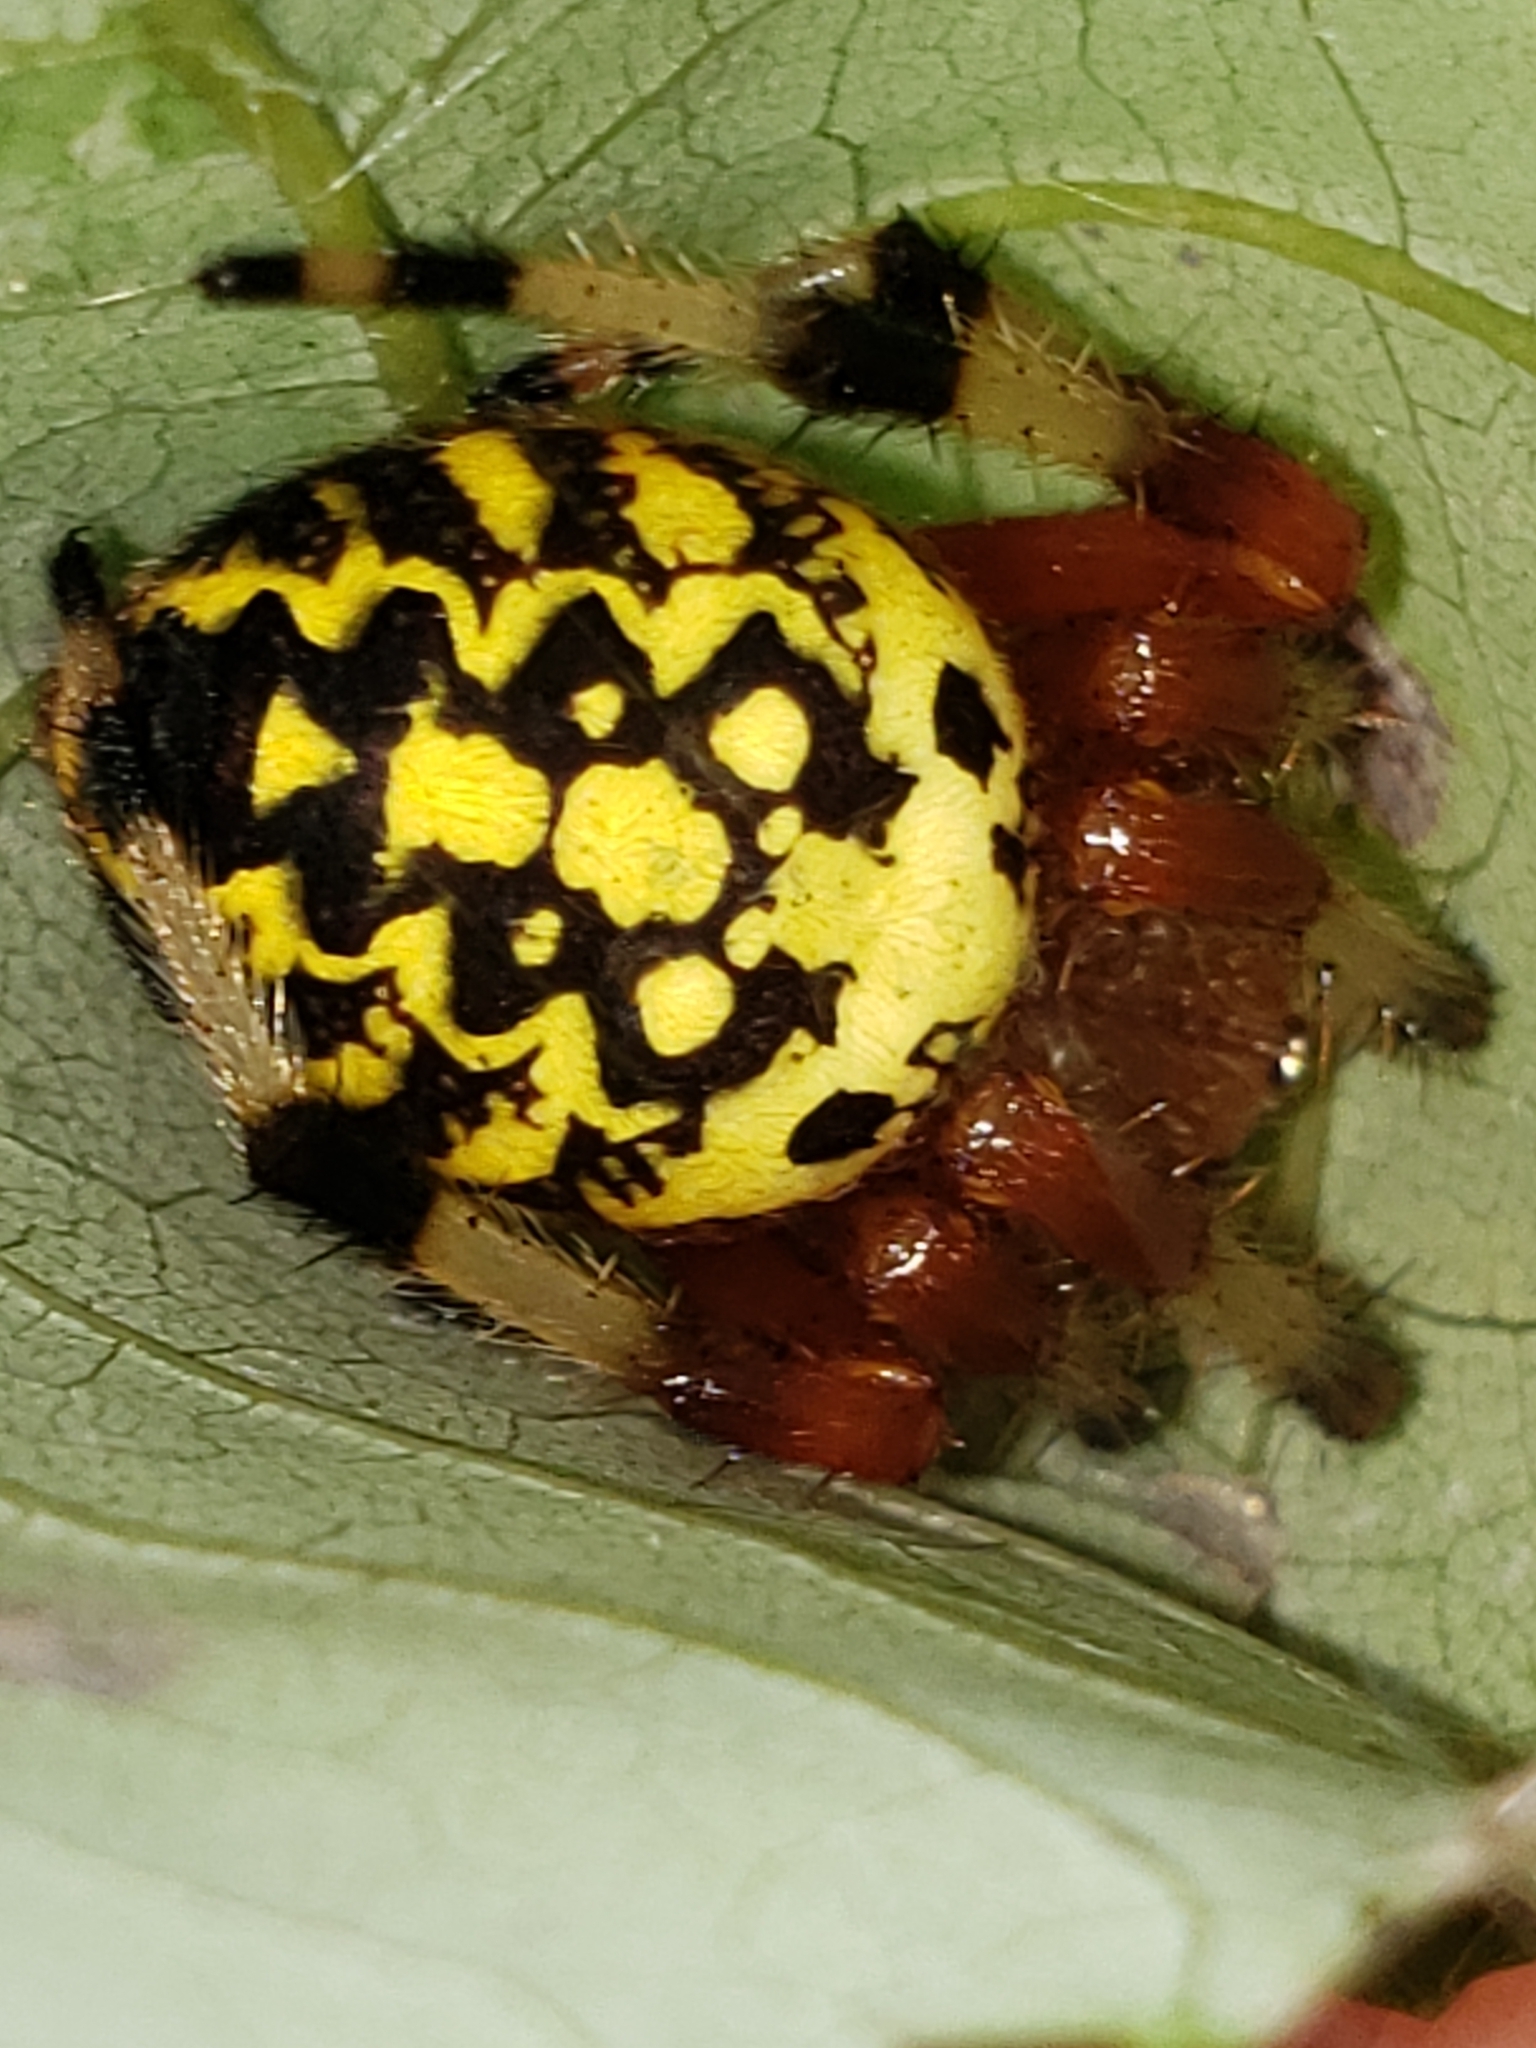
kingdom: Animalia
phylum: Arthropoda
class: Arachnida
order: Araneae
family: Araneidae
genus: Araneus
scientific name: Araneus marmoreus
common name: Marbled orbweaver
